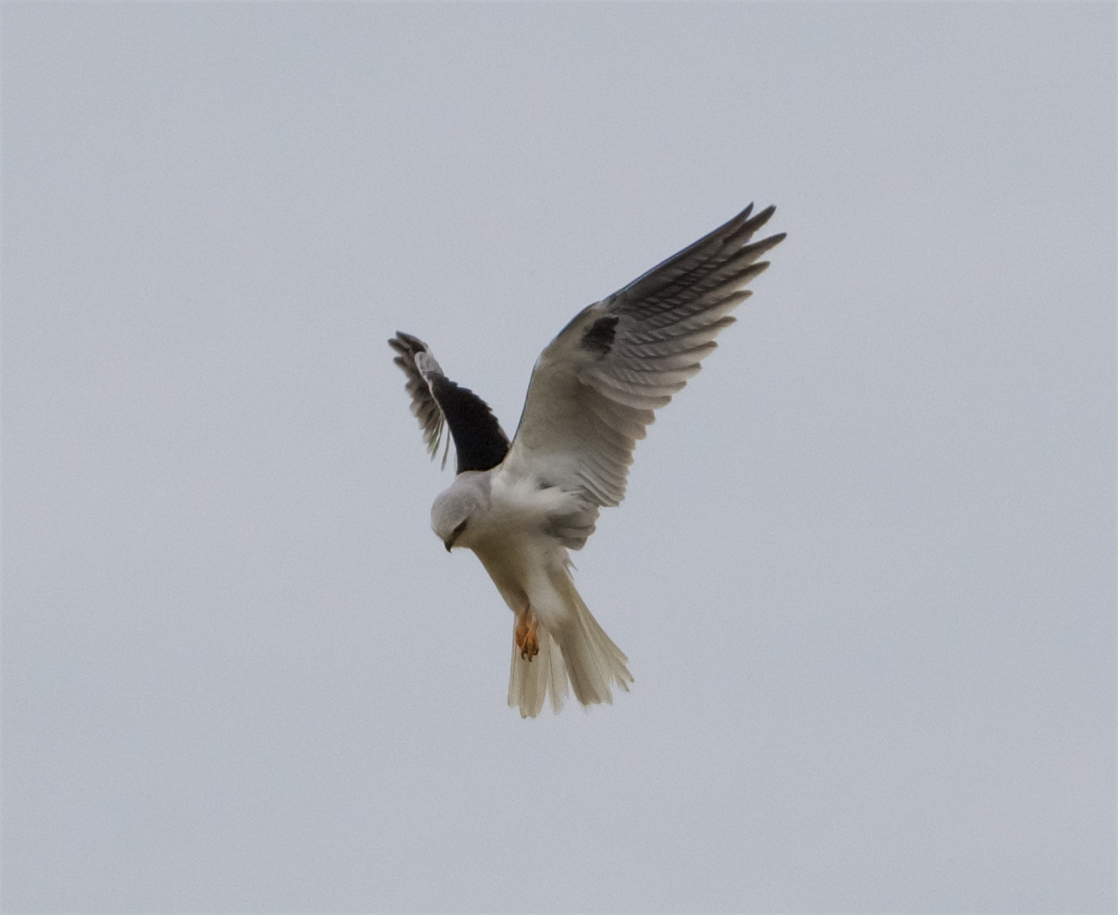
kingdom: Animalia
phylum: Chordata
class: Aves
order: Accipitriformes
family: Accipitridae
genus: Elanus
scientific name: Elanus leucurus
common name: White-tailed kite
